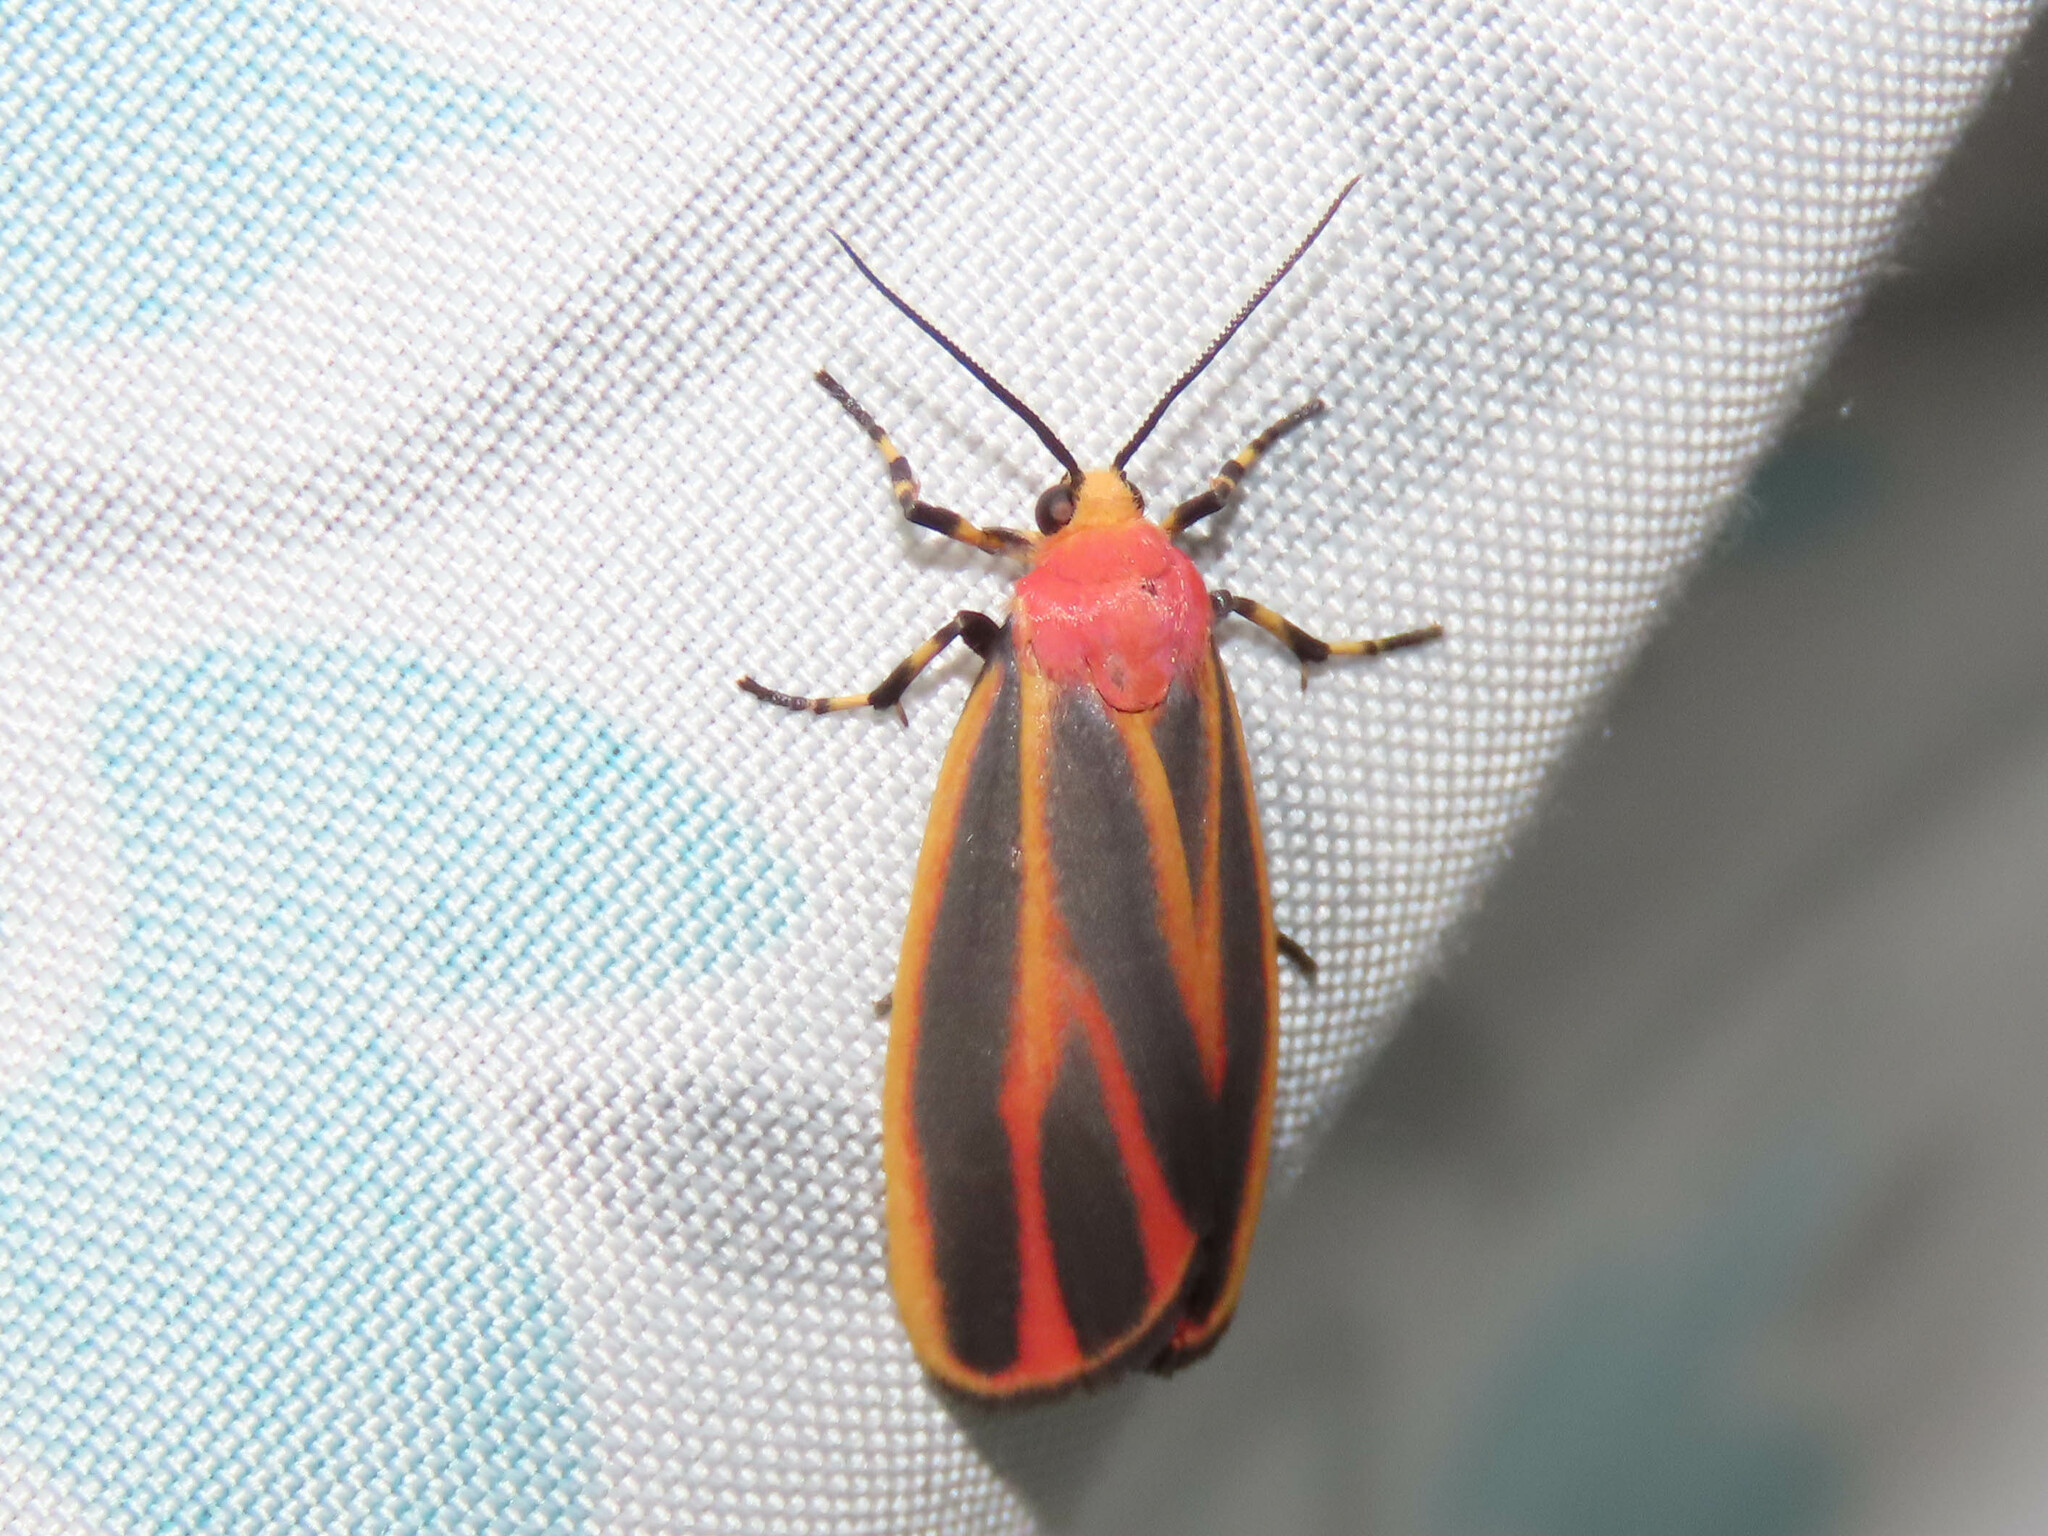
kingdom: Animalia
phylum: Arthropoda
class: Insecta
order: Lepidoptera
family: Erebidae
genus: Hypoprepia
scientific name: Hypoprepia fucosa
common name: Painted lichen moth
